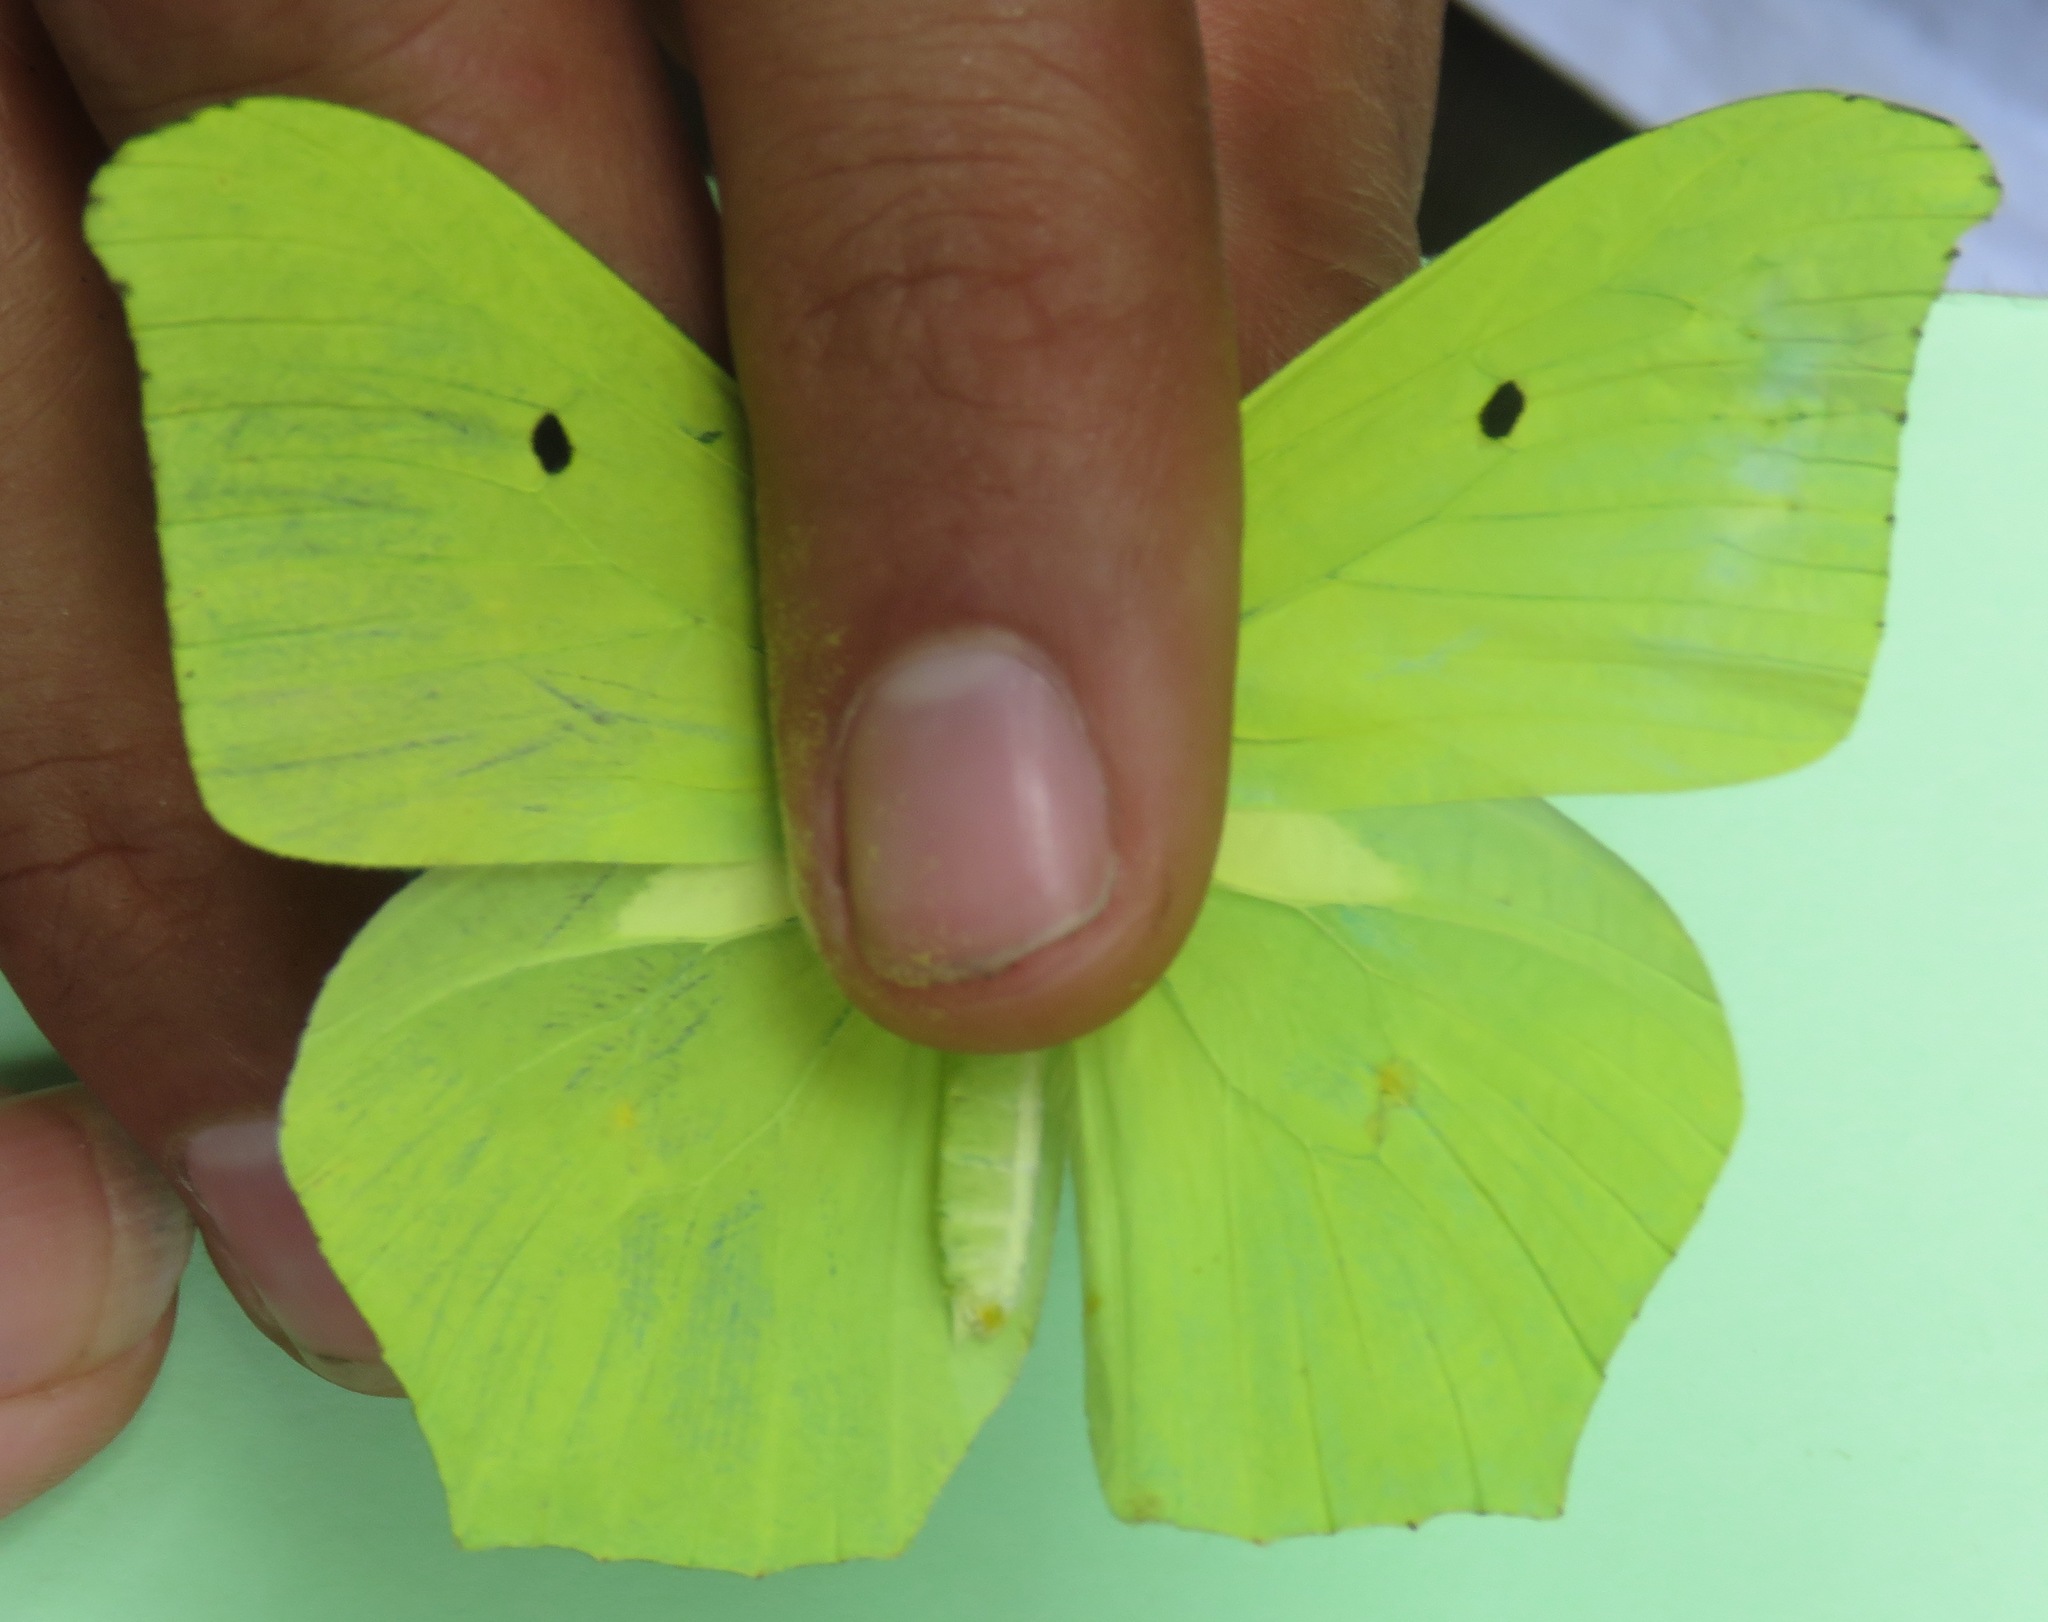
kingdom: Animalia
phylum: Arthropoda
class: Insecta
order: Lepidoptera
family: Pieridae
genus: Anteos
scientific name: Anteos maerula
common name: Angled sulphur
